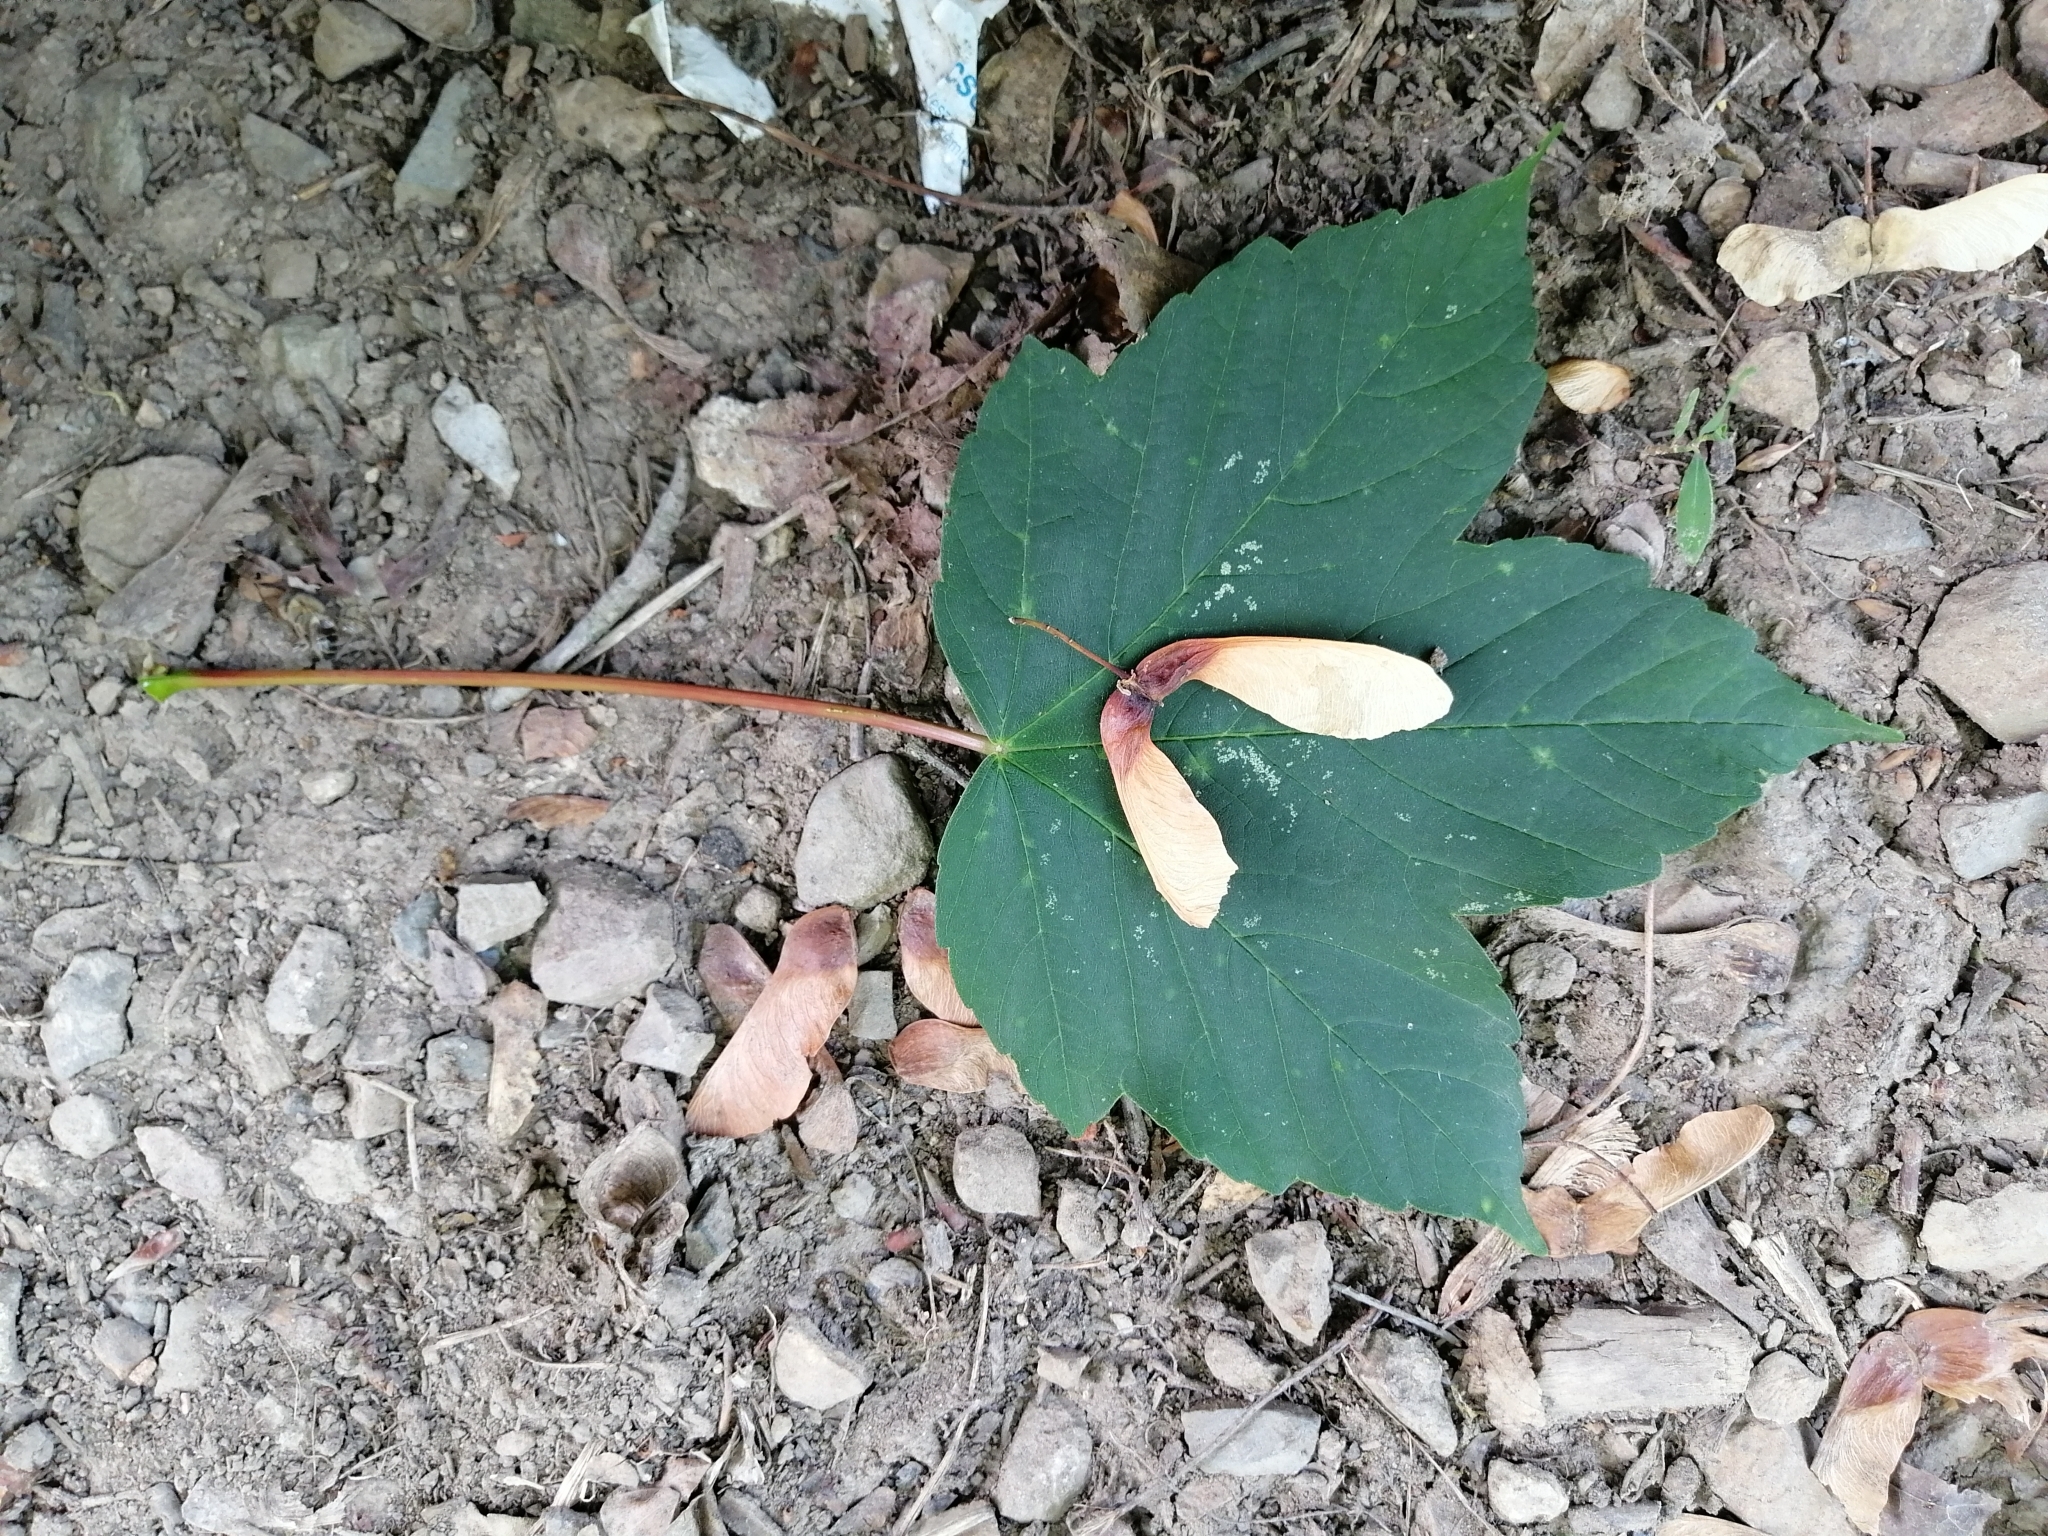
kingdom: Plantae
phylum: Tracheophyta
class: Magnoliopsida
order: Sapindales
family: Sapindaceae
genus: Acer
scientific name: Acer pseudoplatanus
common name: Sycamore
